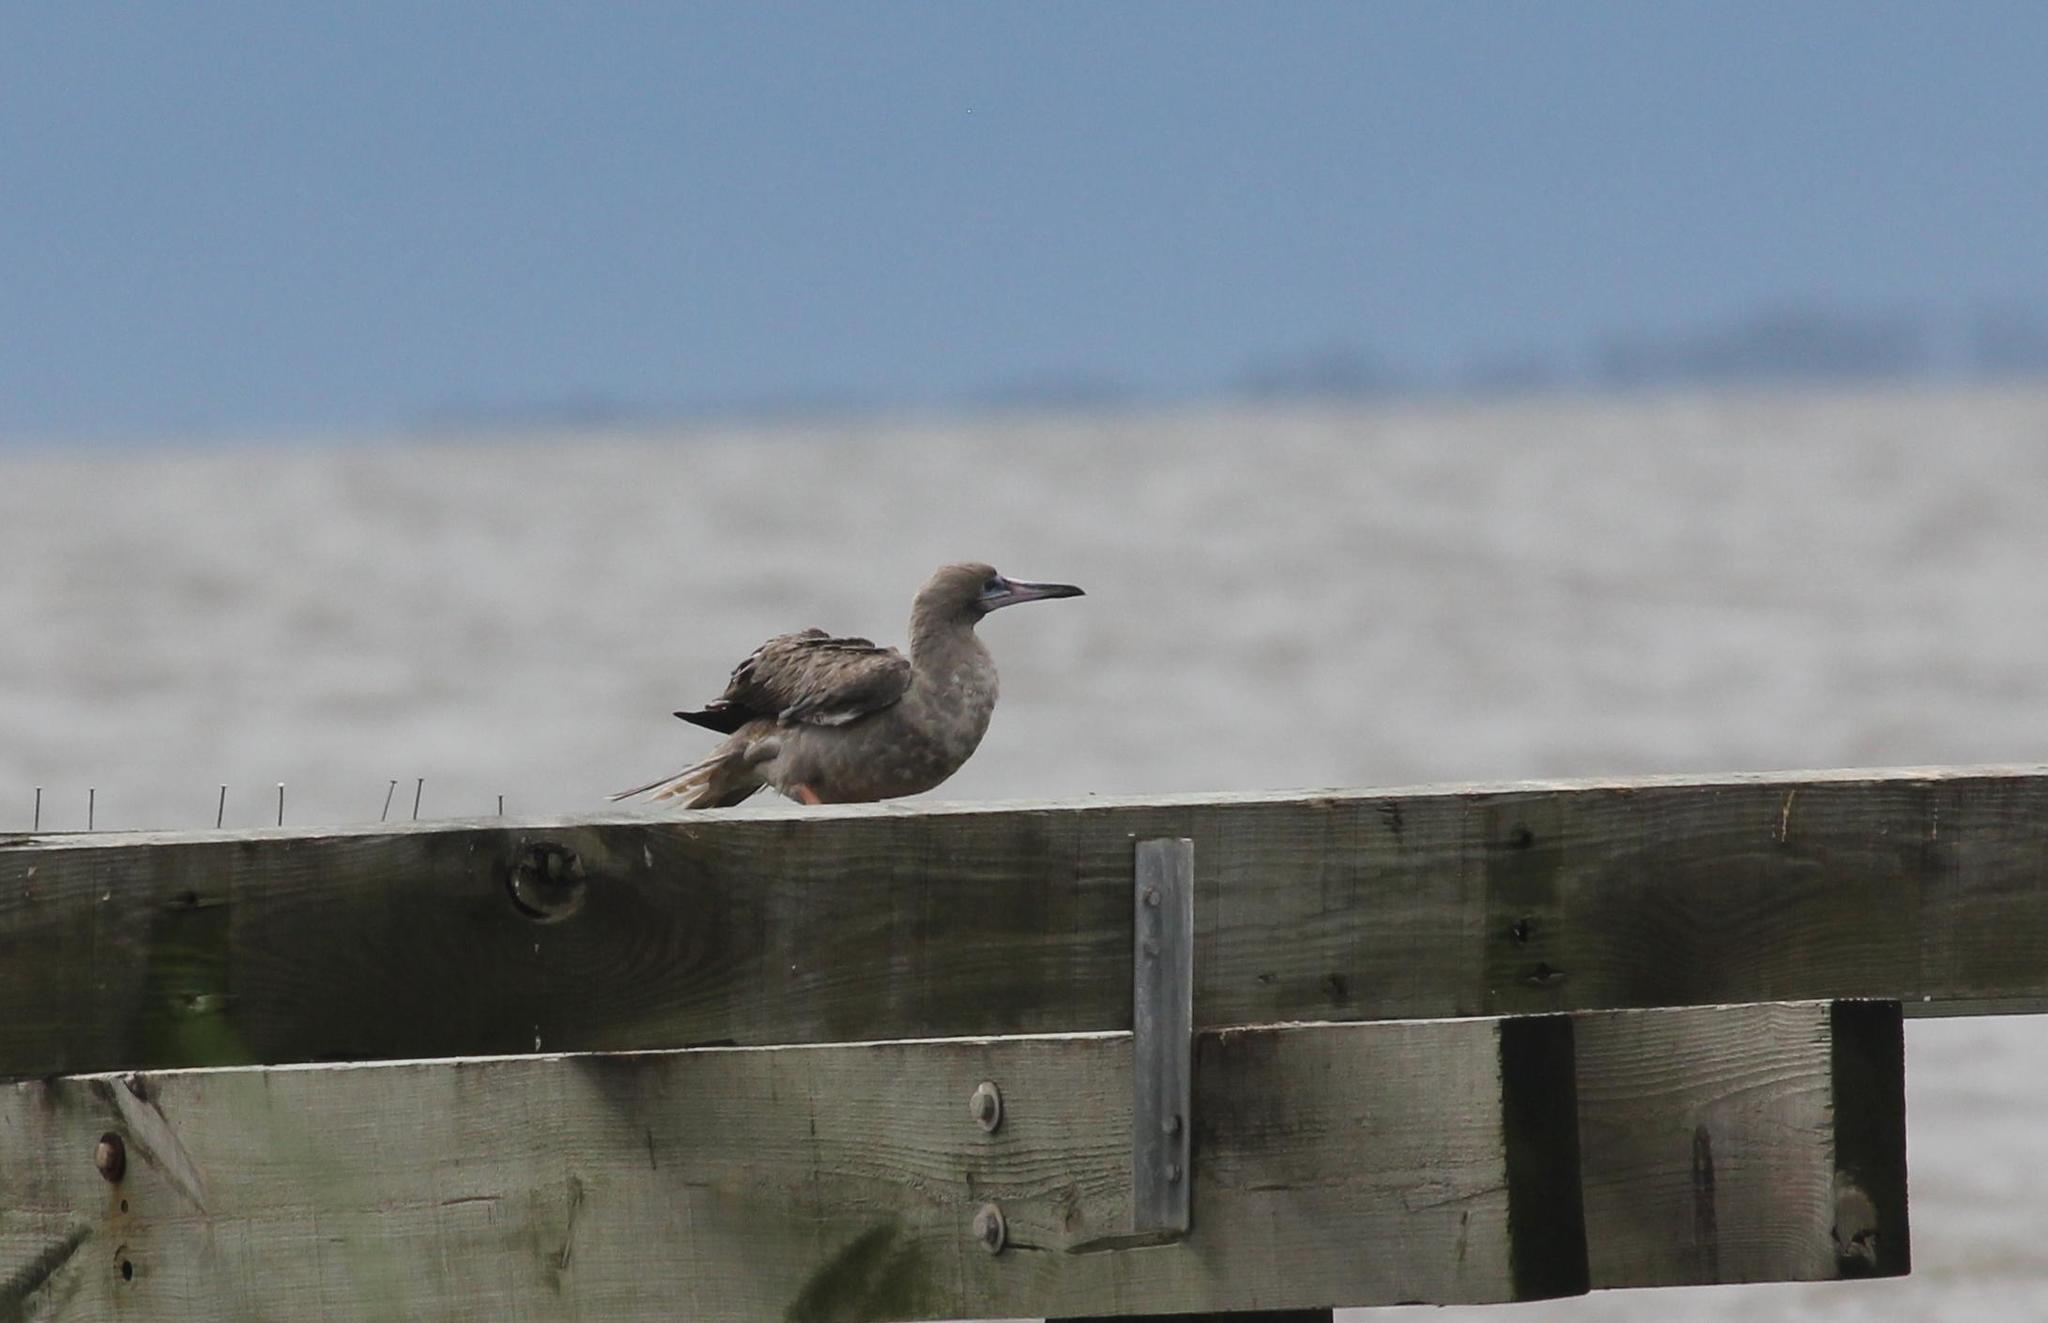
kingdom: Animalia
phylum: Chordata
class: Aves
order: Suliformes
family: Sulidae
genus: Sula
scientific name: Sula sula
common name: Red-footed booby
